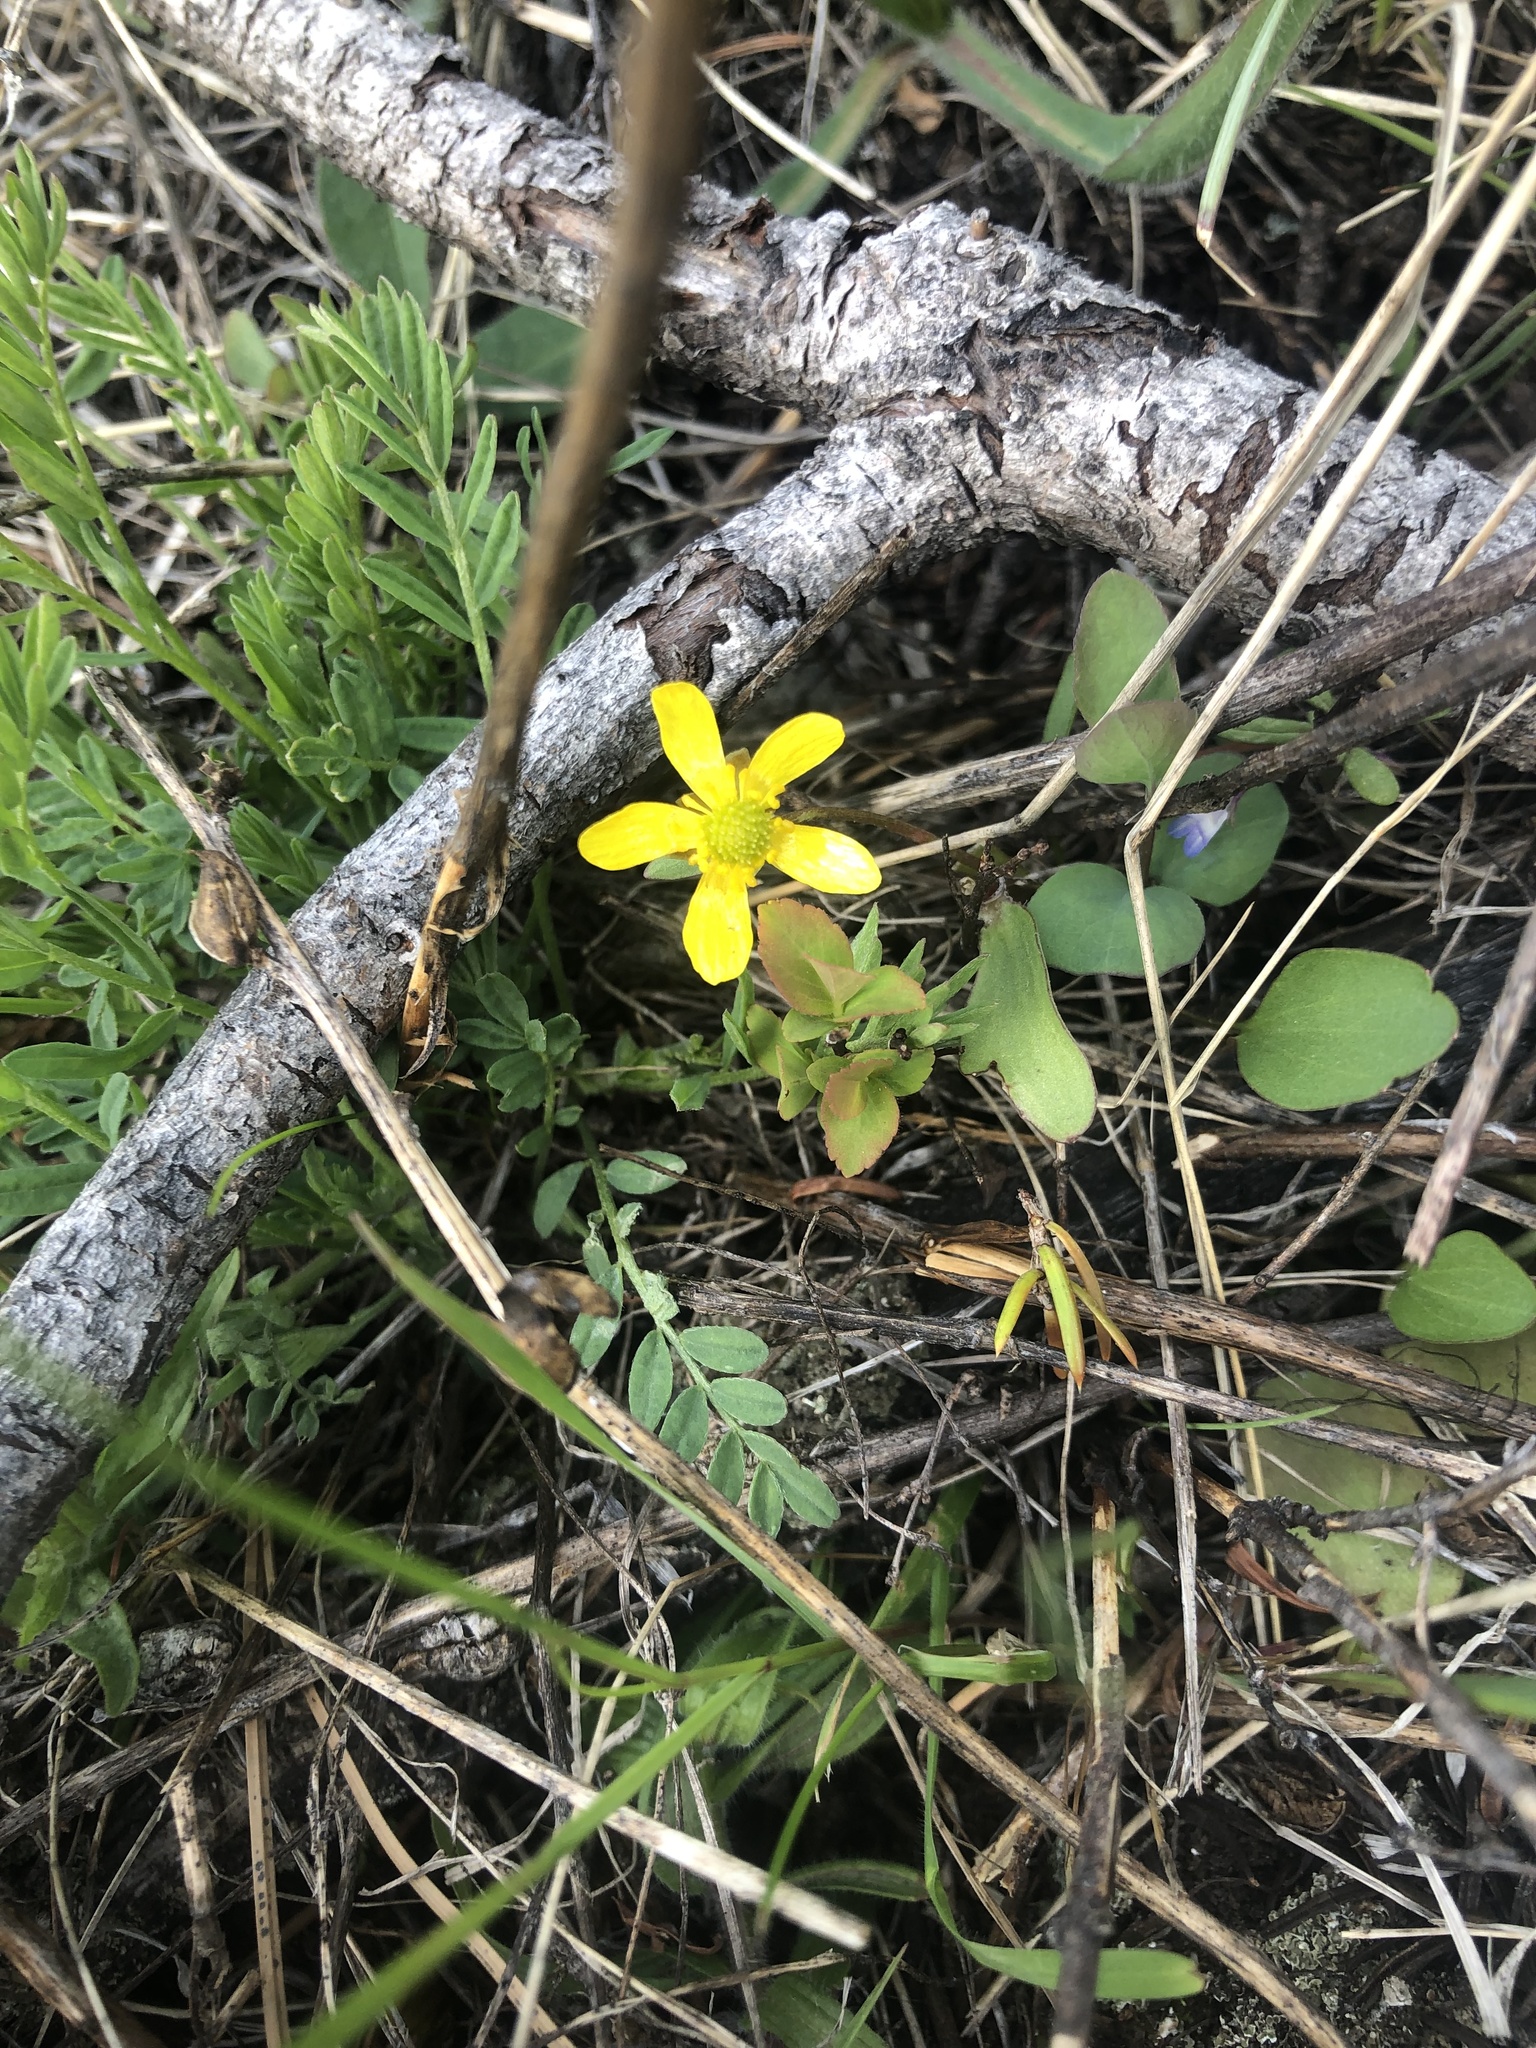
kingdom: Plantae
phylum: Tracheophyta
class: Magnoliopsida
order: Ranunculales
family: Ranunculaceae
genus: Ranunculus
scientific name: Ranunculus glaberrimus
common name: Sagebrush buttercup
